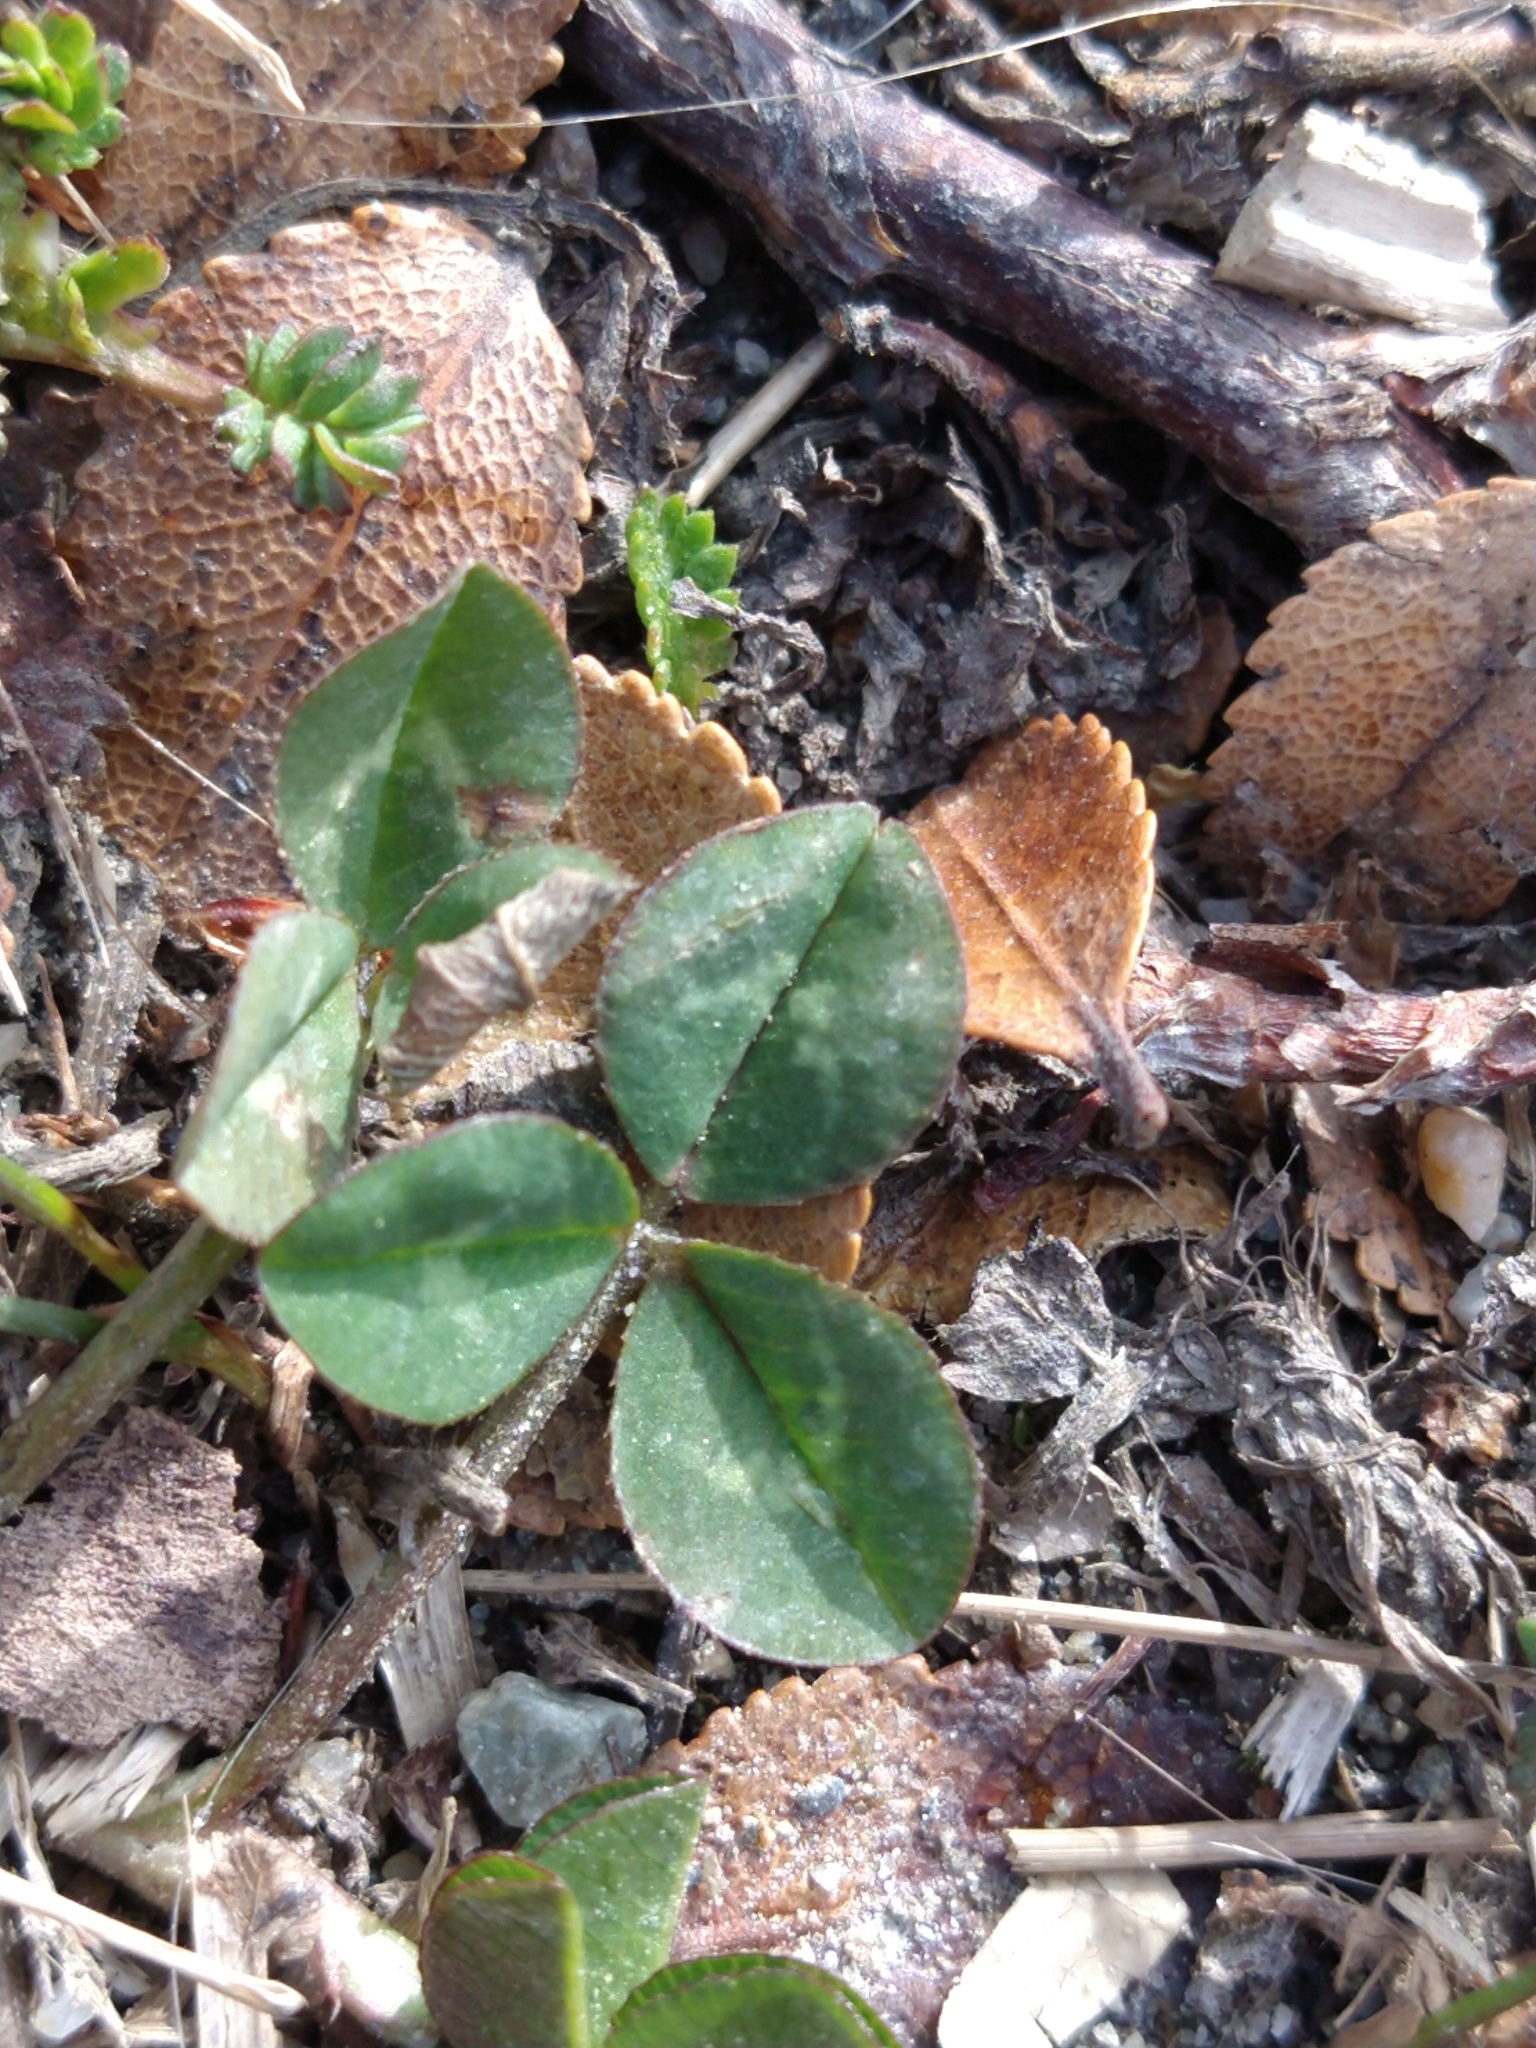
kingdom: Plantae
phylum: Tracheophyta
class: Magnoliopsida
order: Fabales
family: Fabaceae
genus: Trifolium
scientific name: Trifolium repens
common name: White clover
